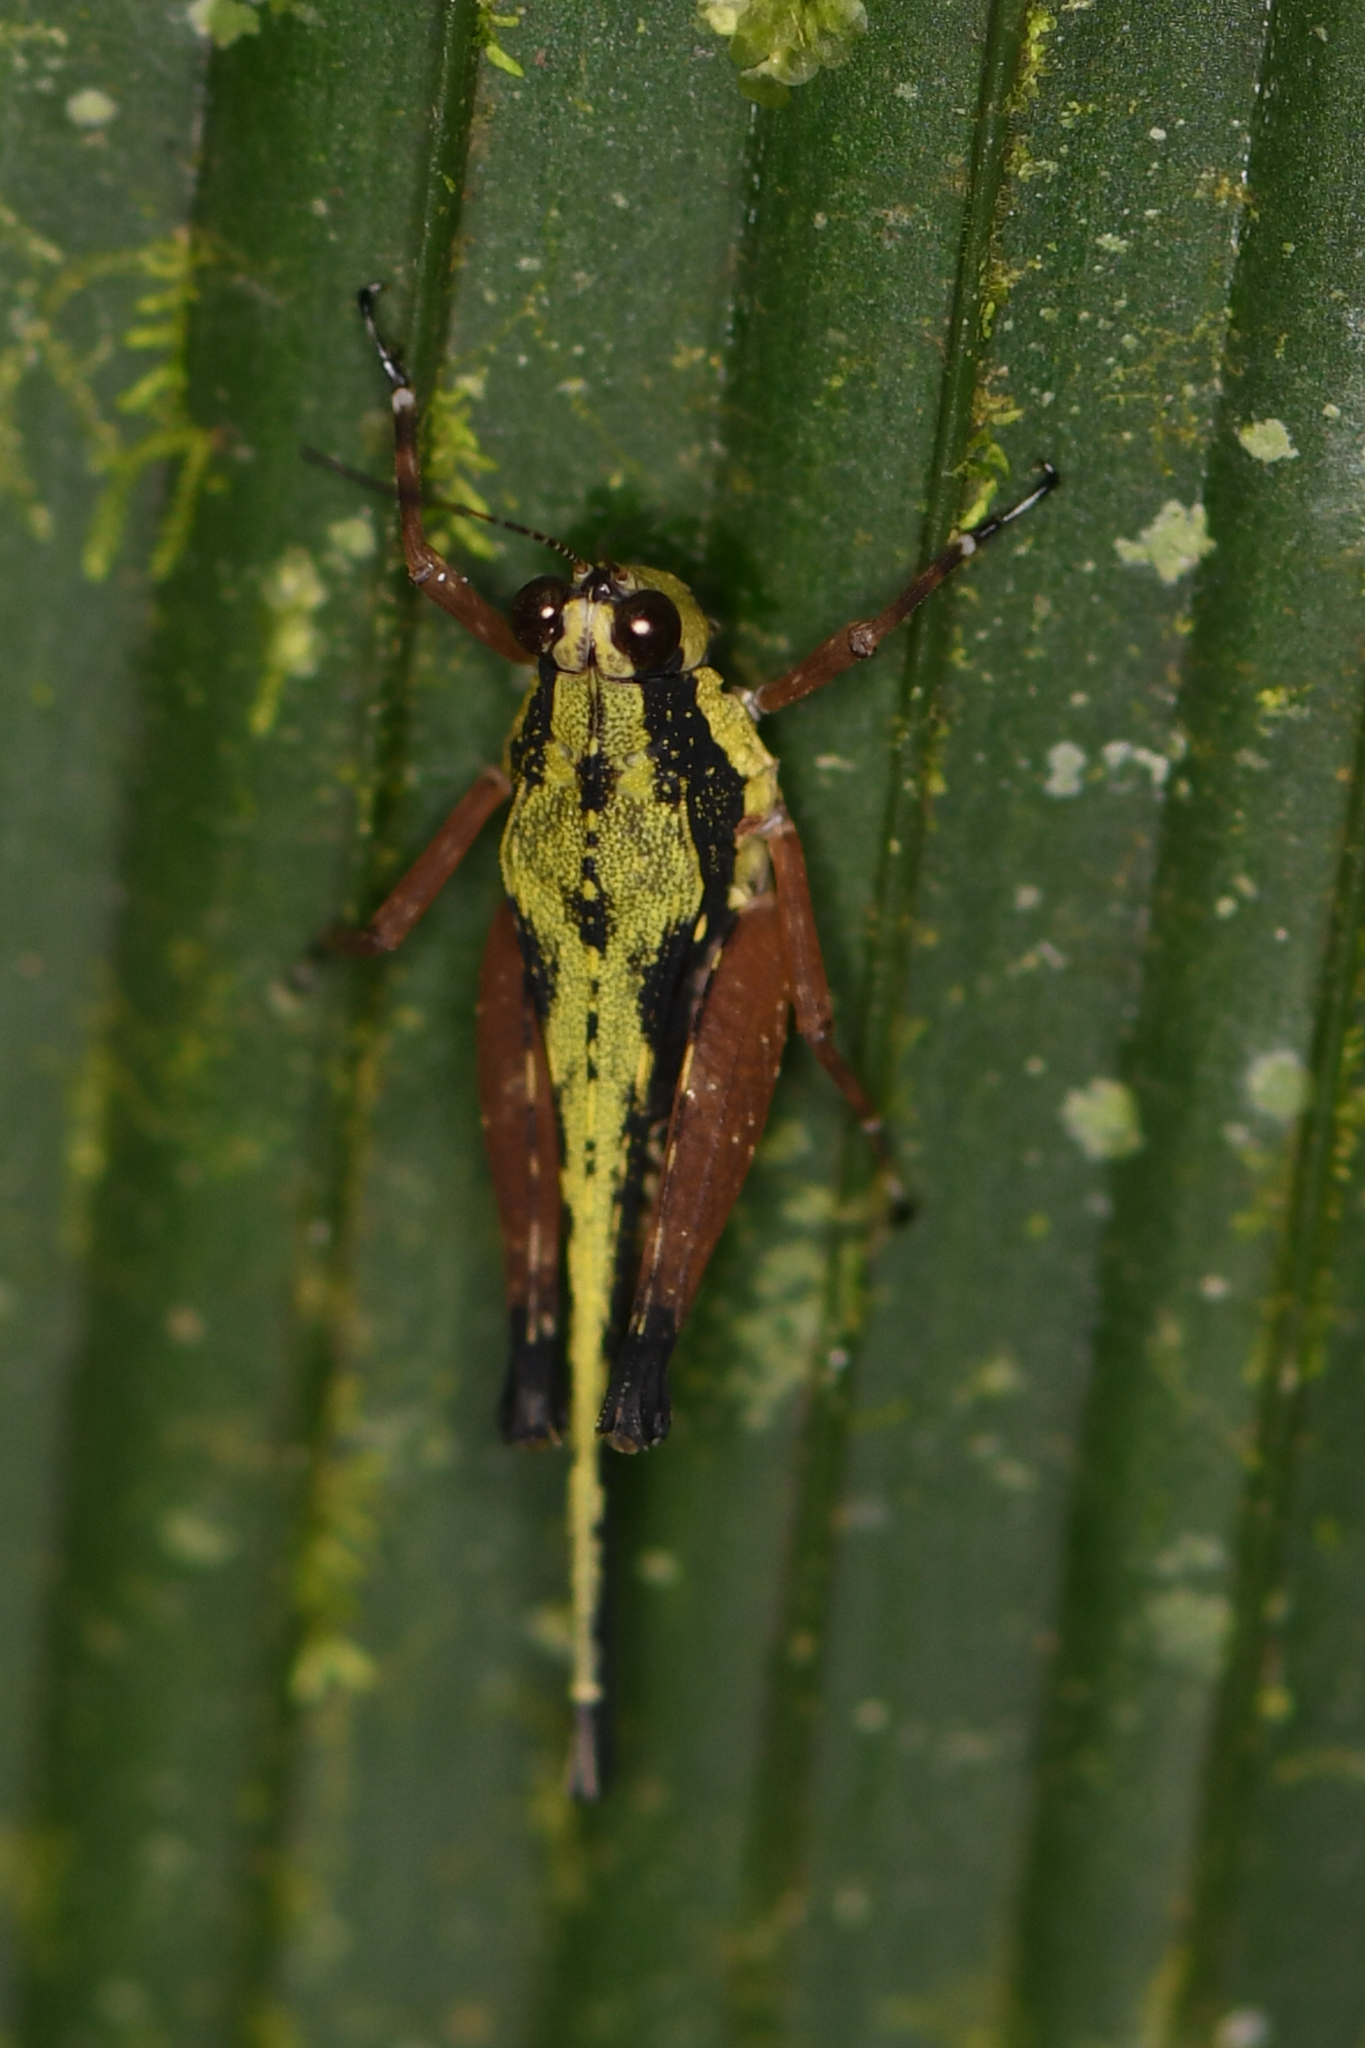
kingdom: Animalia
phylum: Arthropoda
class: Insecta
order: Orthoptera
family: Tetrigidae
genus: Scaria
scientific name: Scaria fasciata
